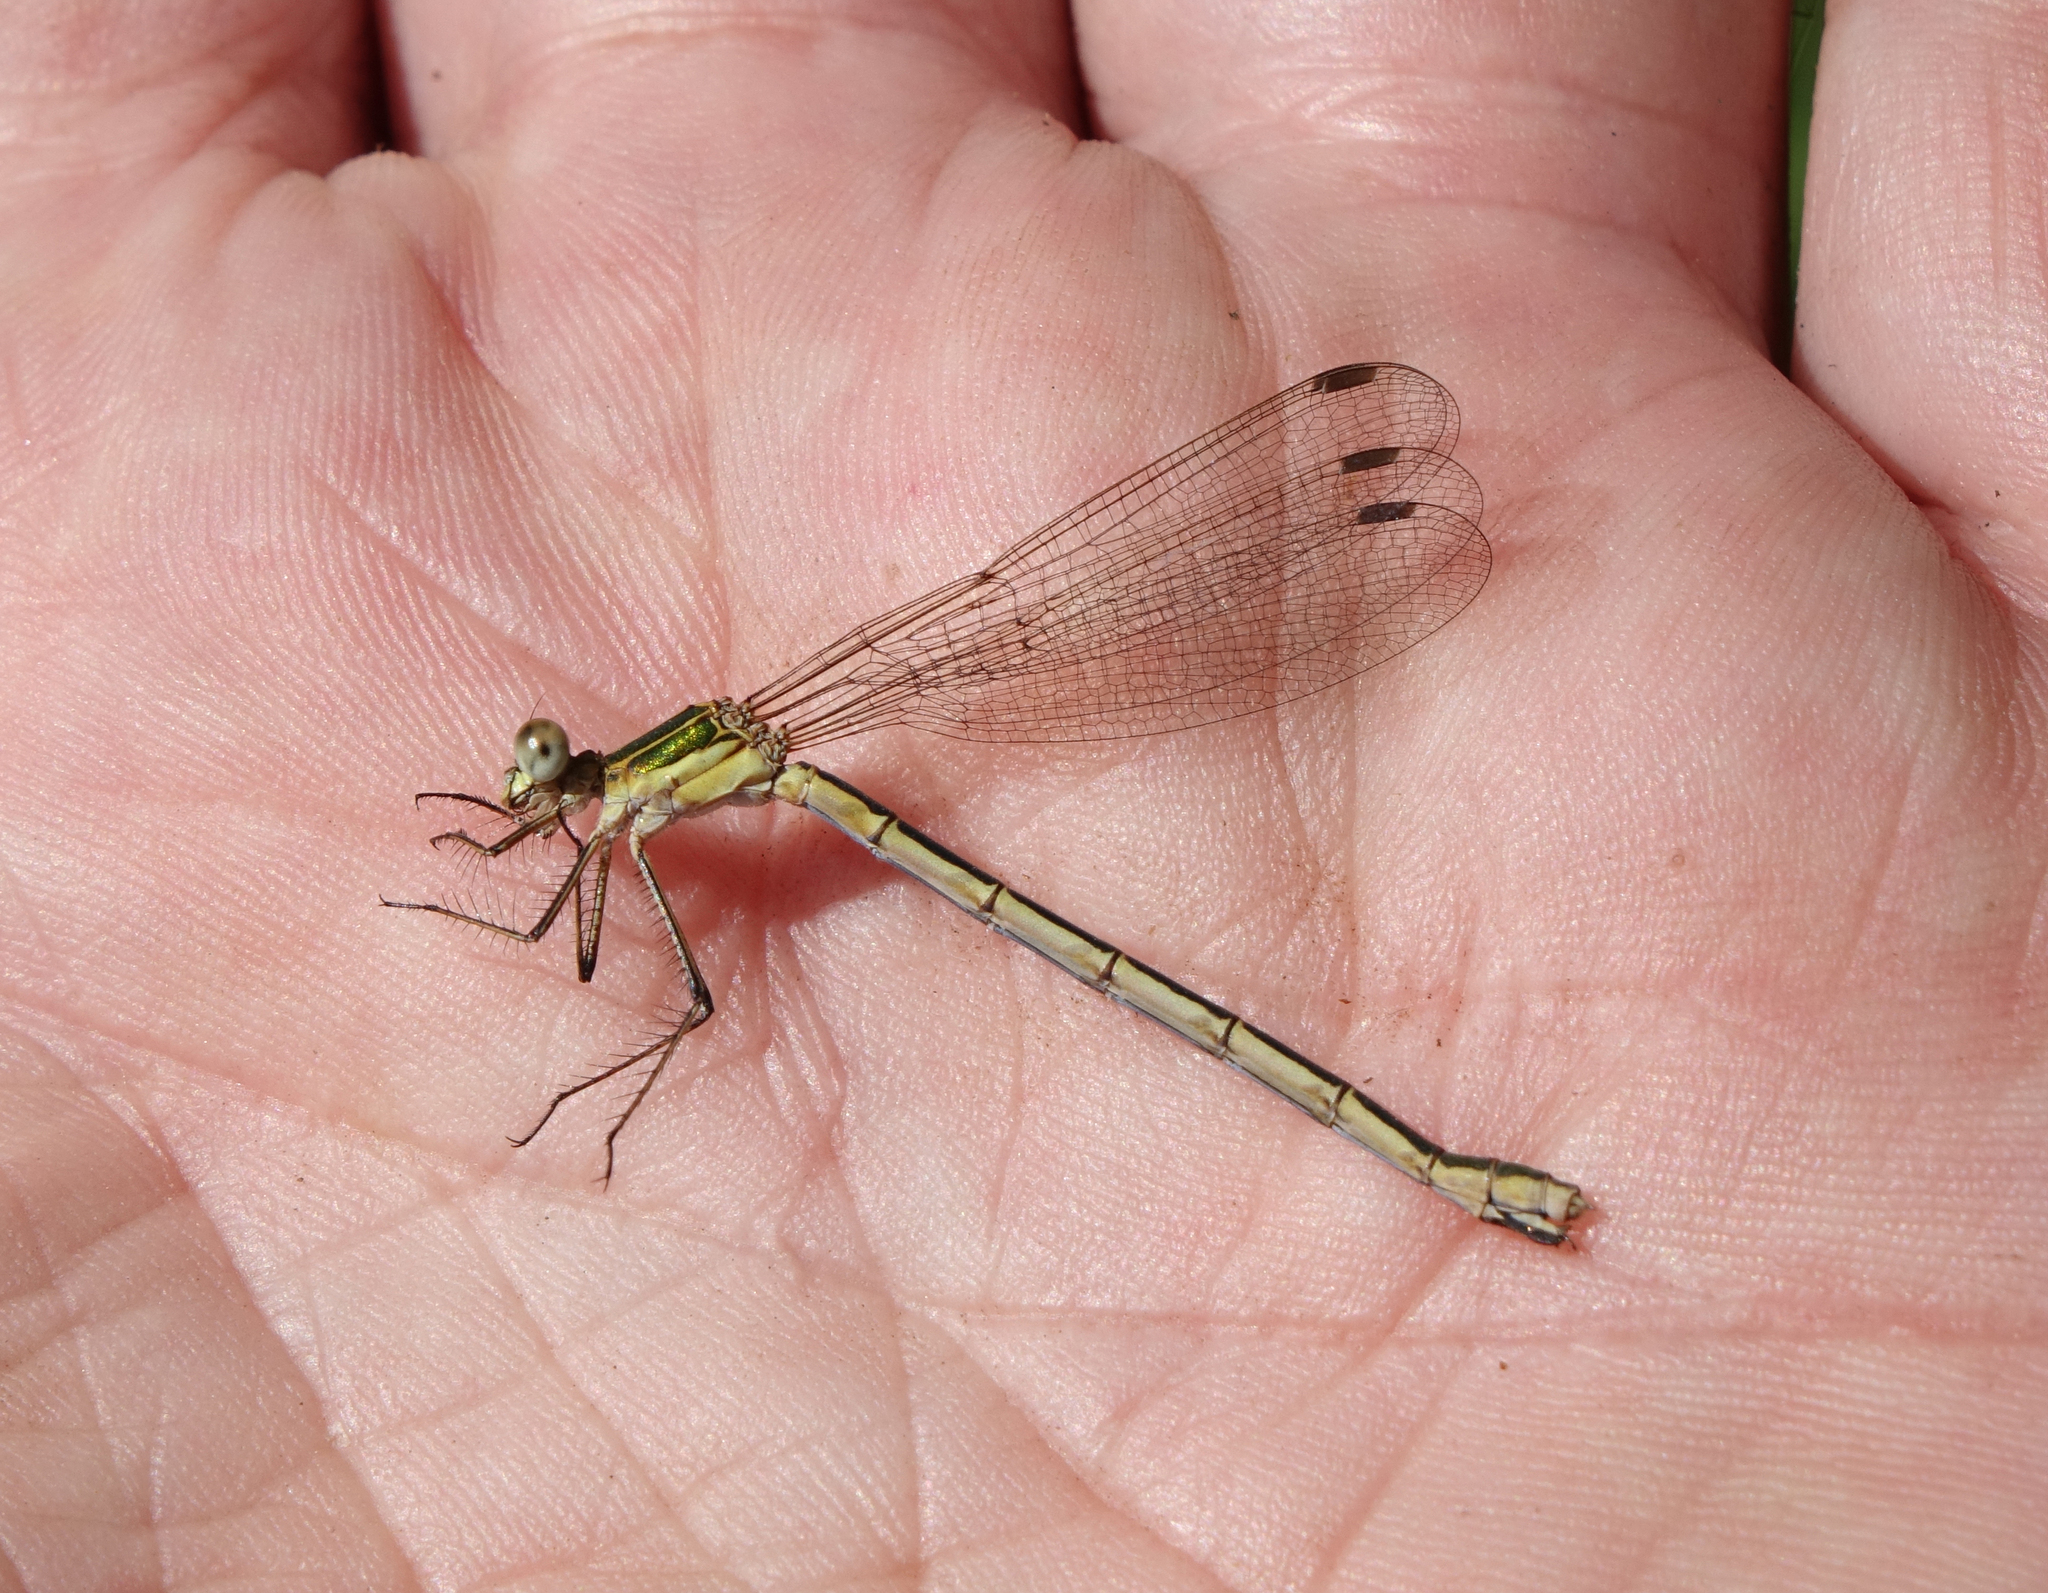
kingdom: Animalia
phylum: Arthropoda
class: Insecta
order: Odonata
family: Lestidae
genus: Lestes
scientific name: Lestes sponsa
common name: Common spreadwing
